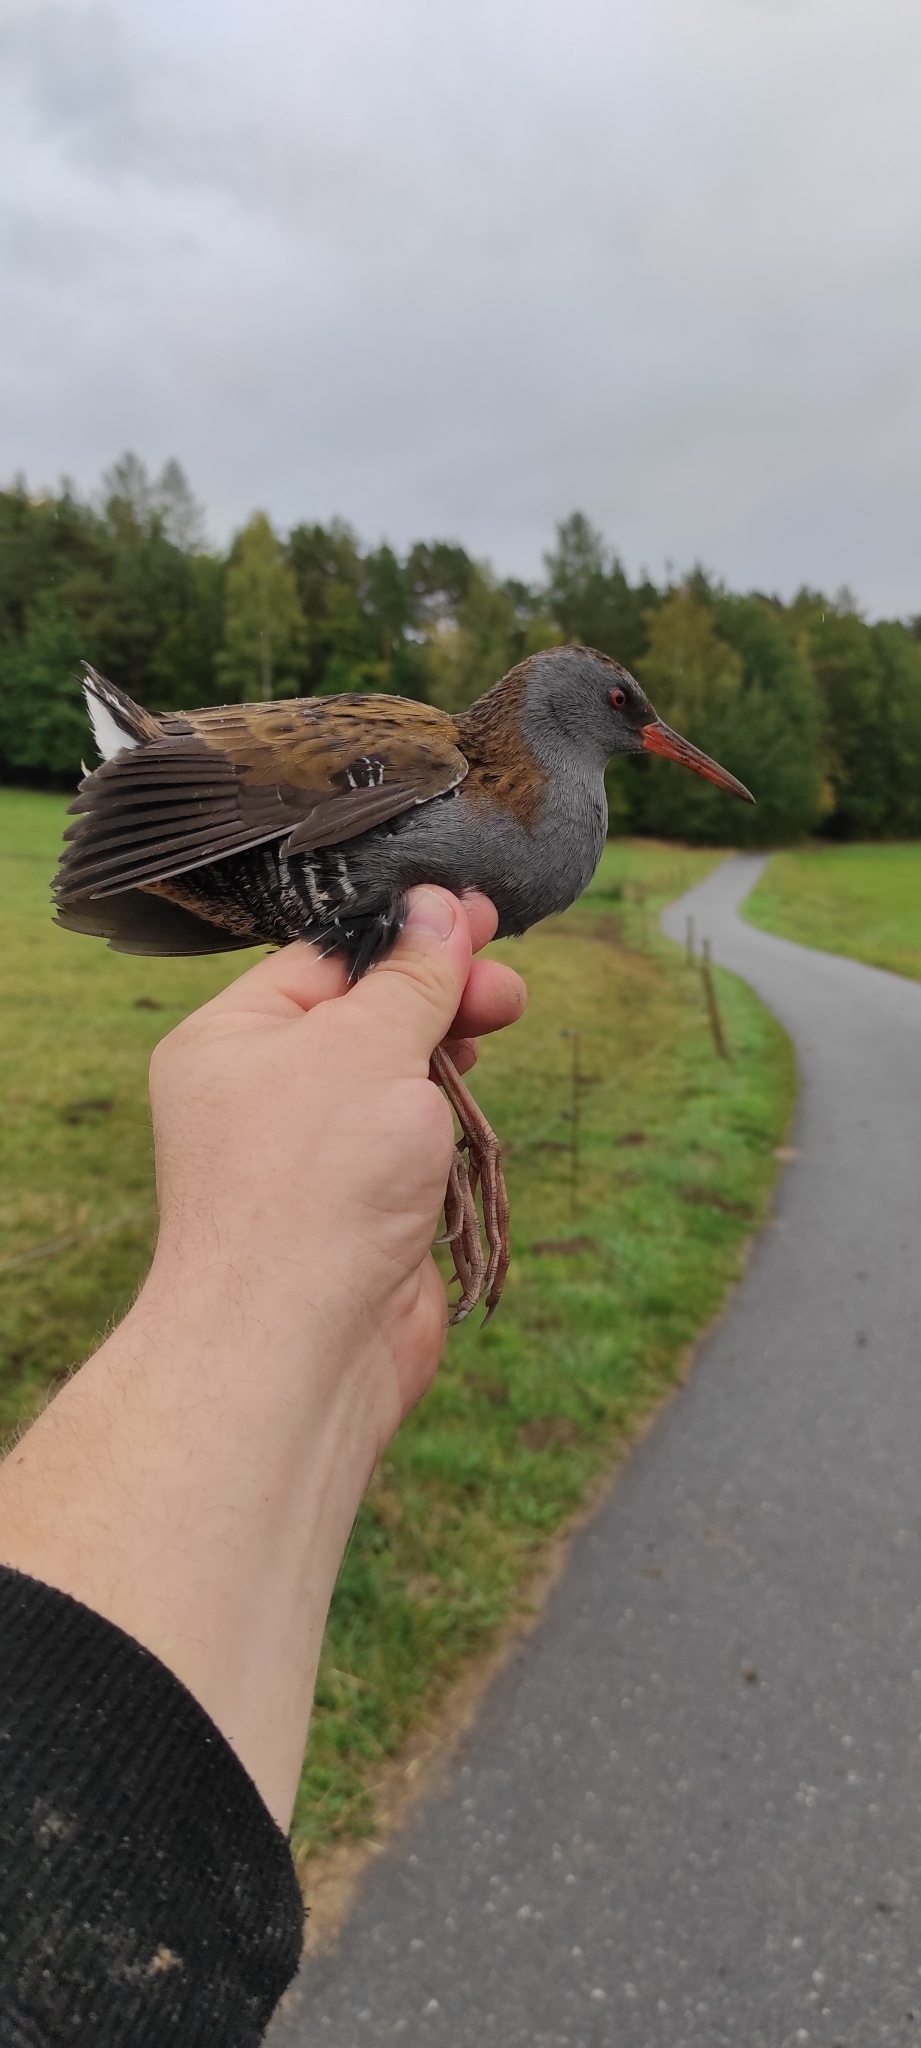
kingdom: Animalia
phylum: Chordata
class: Aves
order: Gruiformes
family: Rallidae
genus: Rallus
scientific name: Rallus aquaticus
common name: Water rail
